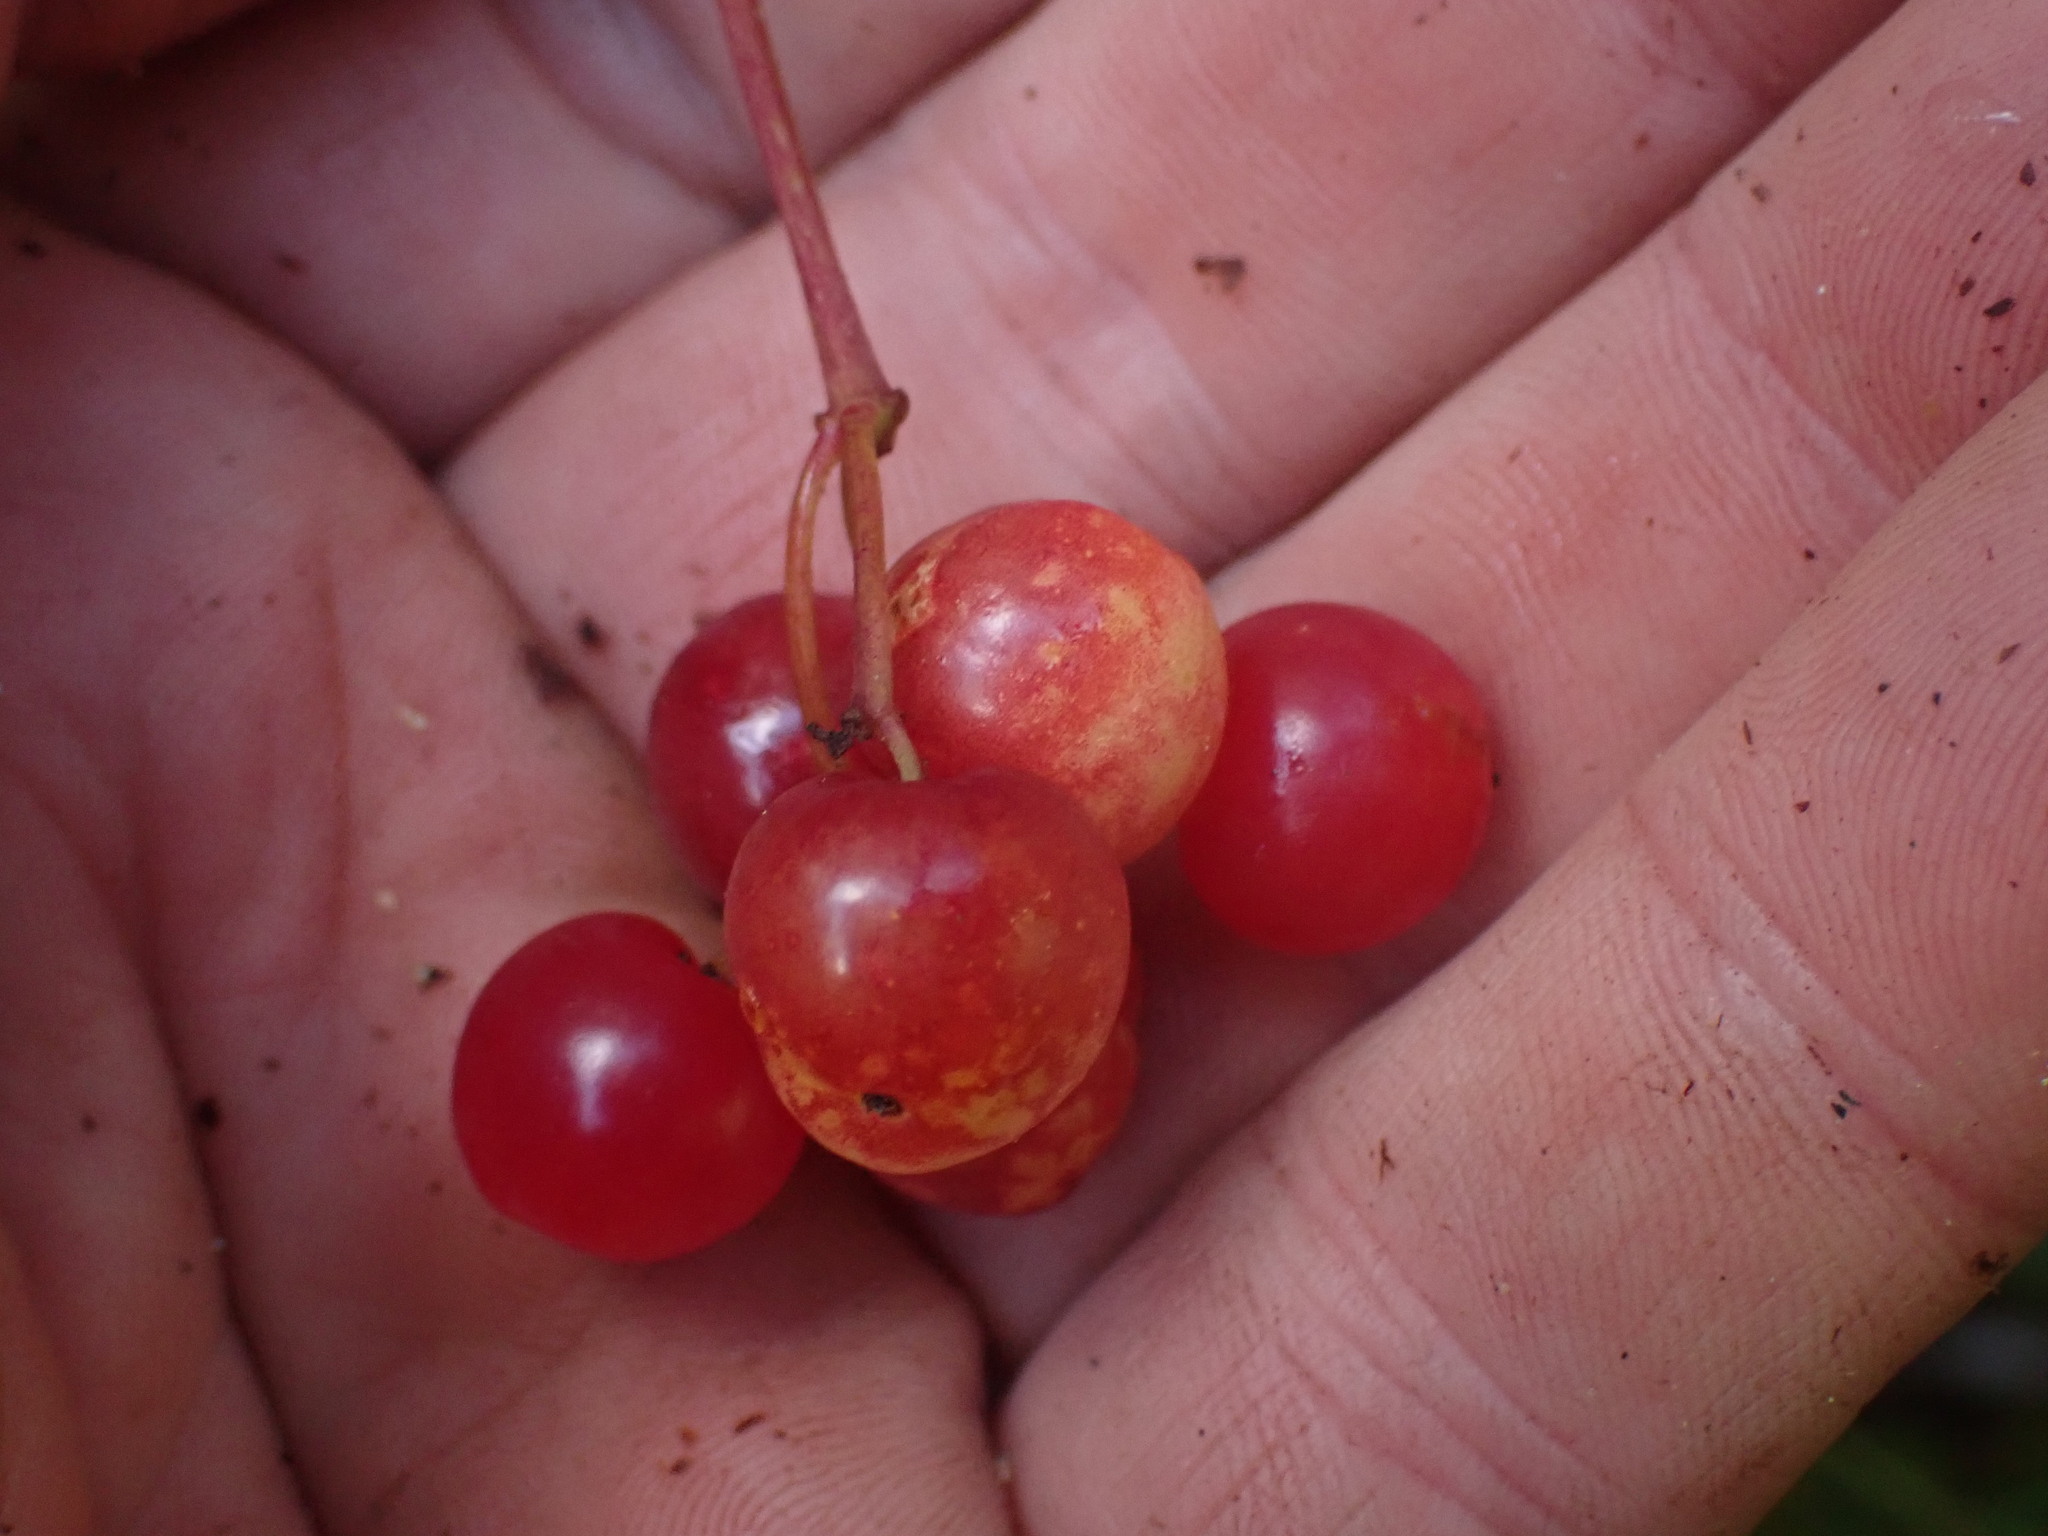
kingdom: Plantae
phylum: Tracheophyta
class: Magnoliopsida
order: Dipsacales
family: Viburnaceae
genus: Viburnum
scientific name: Viburnum edule
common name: Mooseberry
